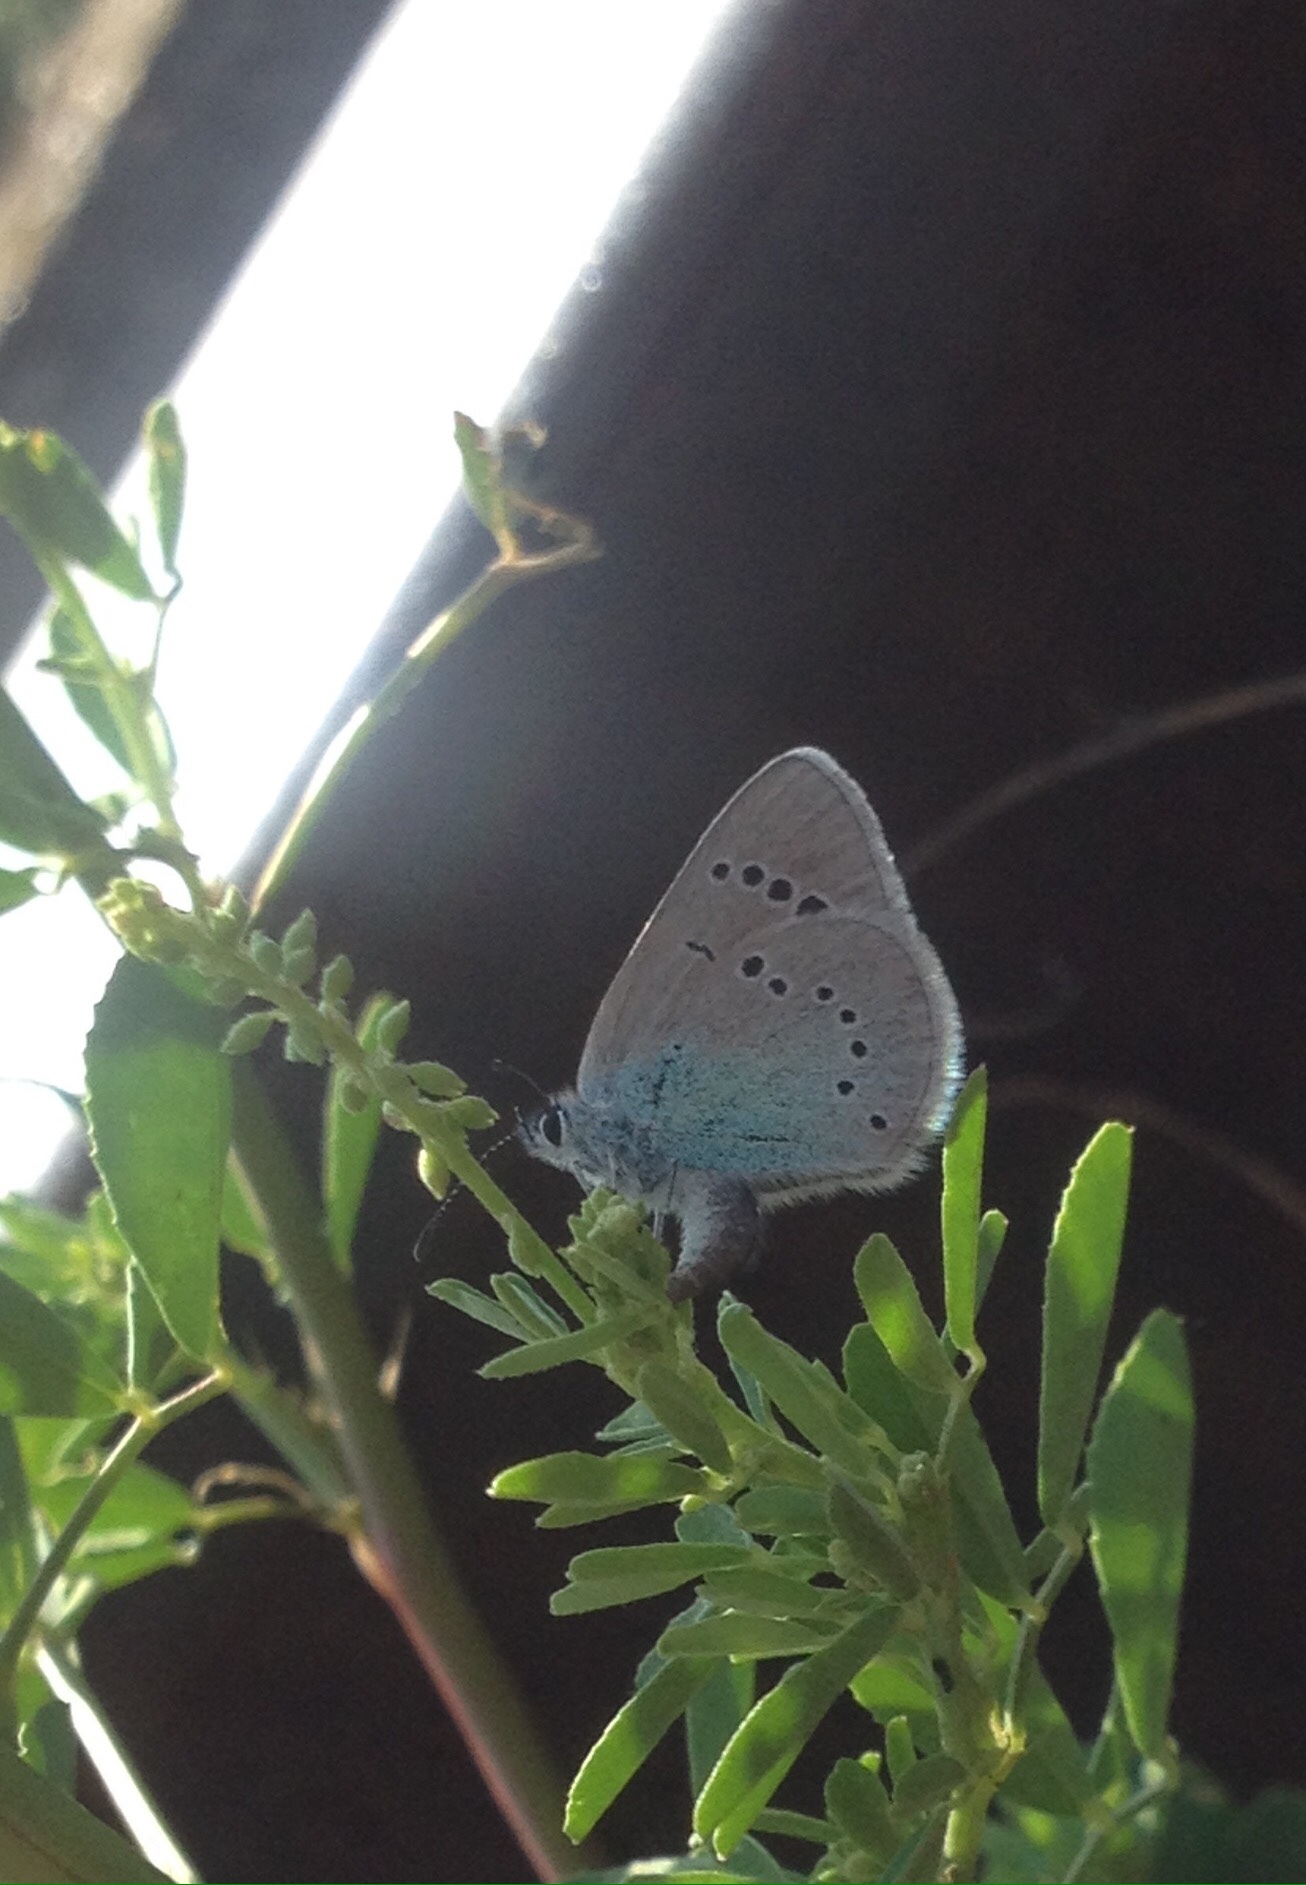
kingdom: Animalia
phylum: Arthropoda
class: Insecta
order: Lepidoptera
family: Lycaenidae
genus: Glaucopsyche
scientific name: Glaucopsyche alexis
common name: Green-underside blue
